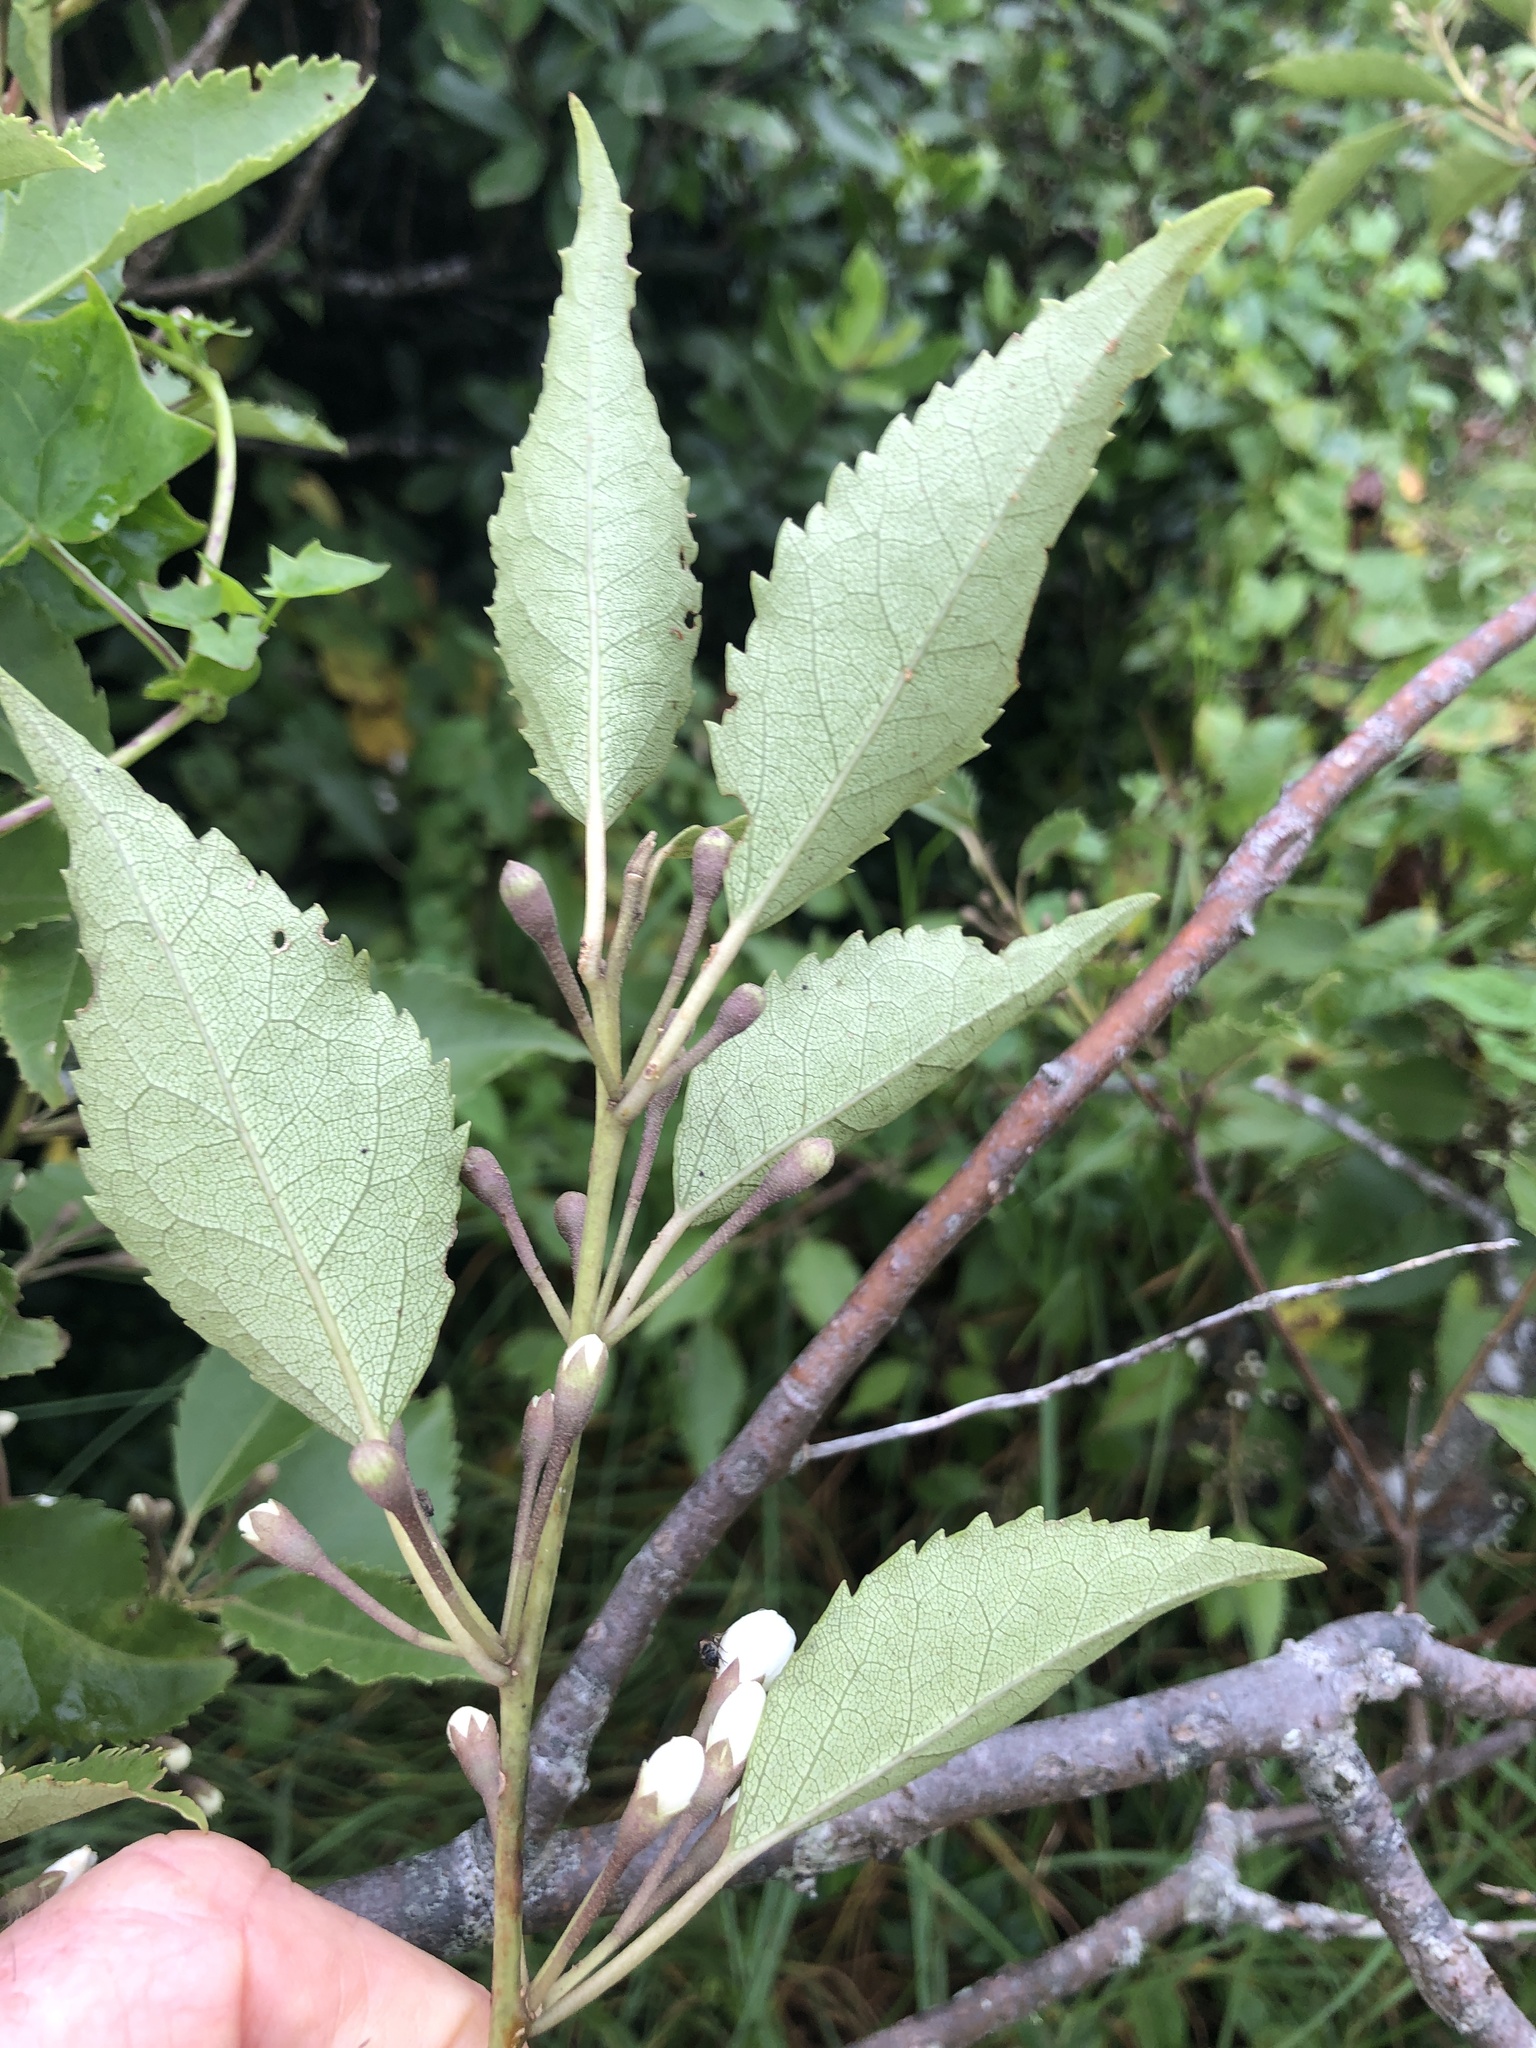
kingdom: Plantae
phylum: Tracheophyta
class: Magnoliopsida
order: Malvales
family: Malvaceae
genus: Hoheria
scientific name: Hoheria populnea
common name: Lacebark
